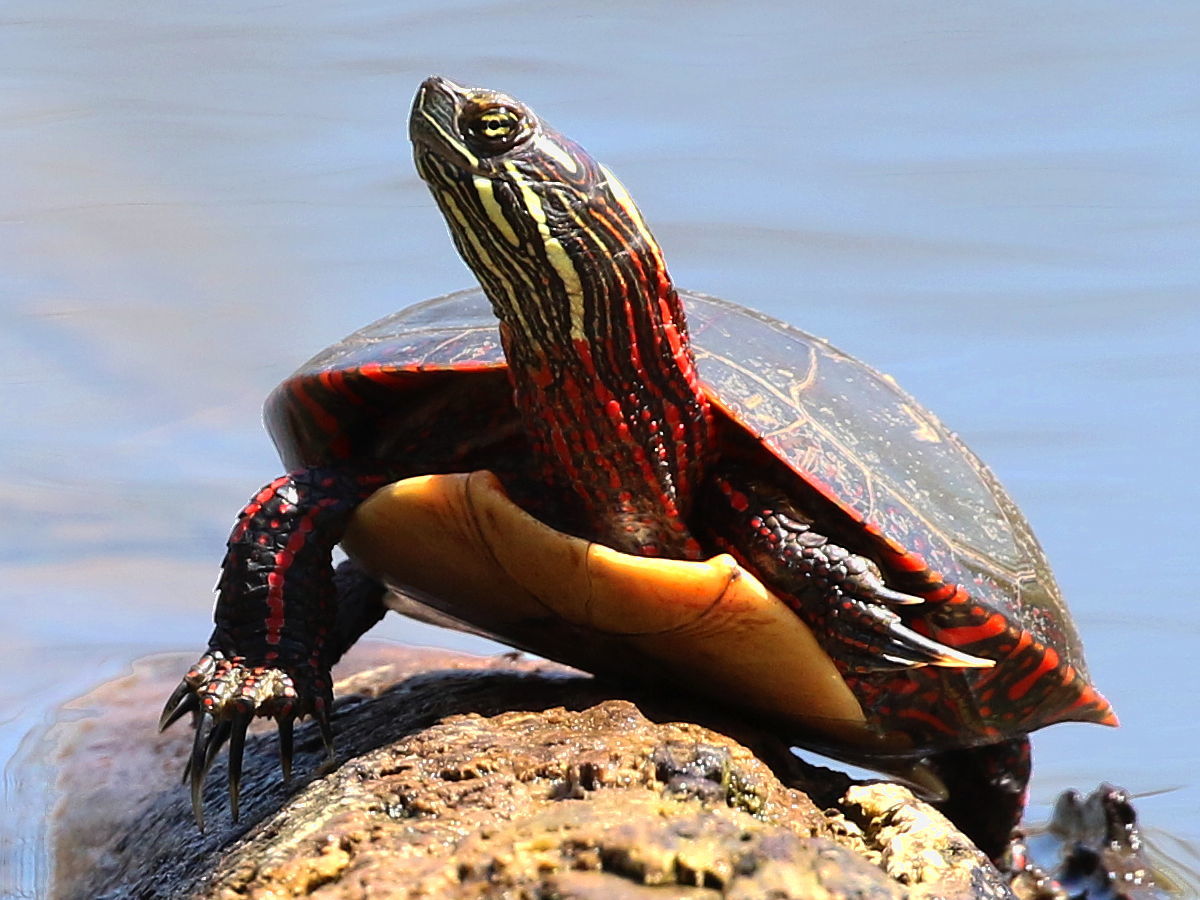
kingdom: Animalia
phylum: Chordata
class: Testudines
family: Emydidae
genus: Chrysemys
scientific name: Chrysemys picta
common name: Painted turtle
